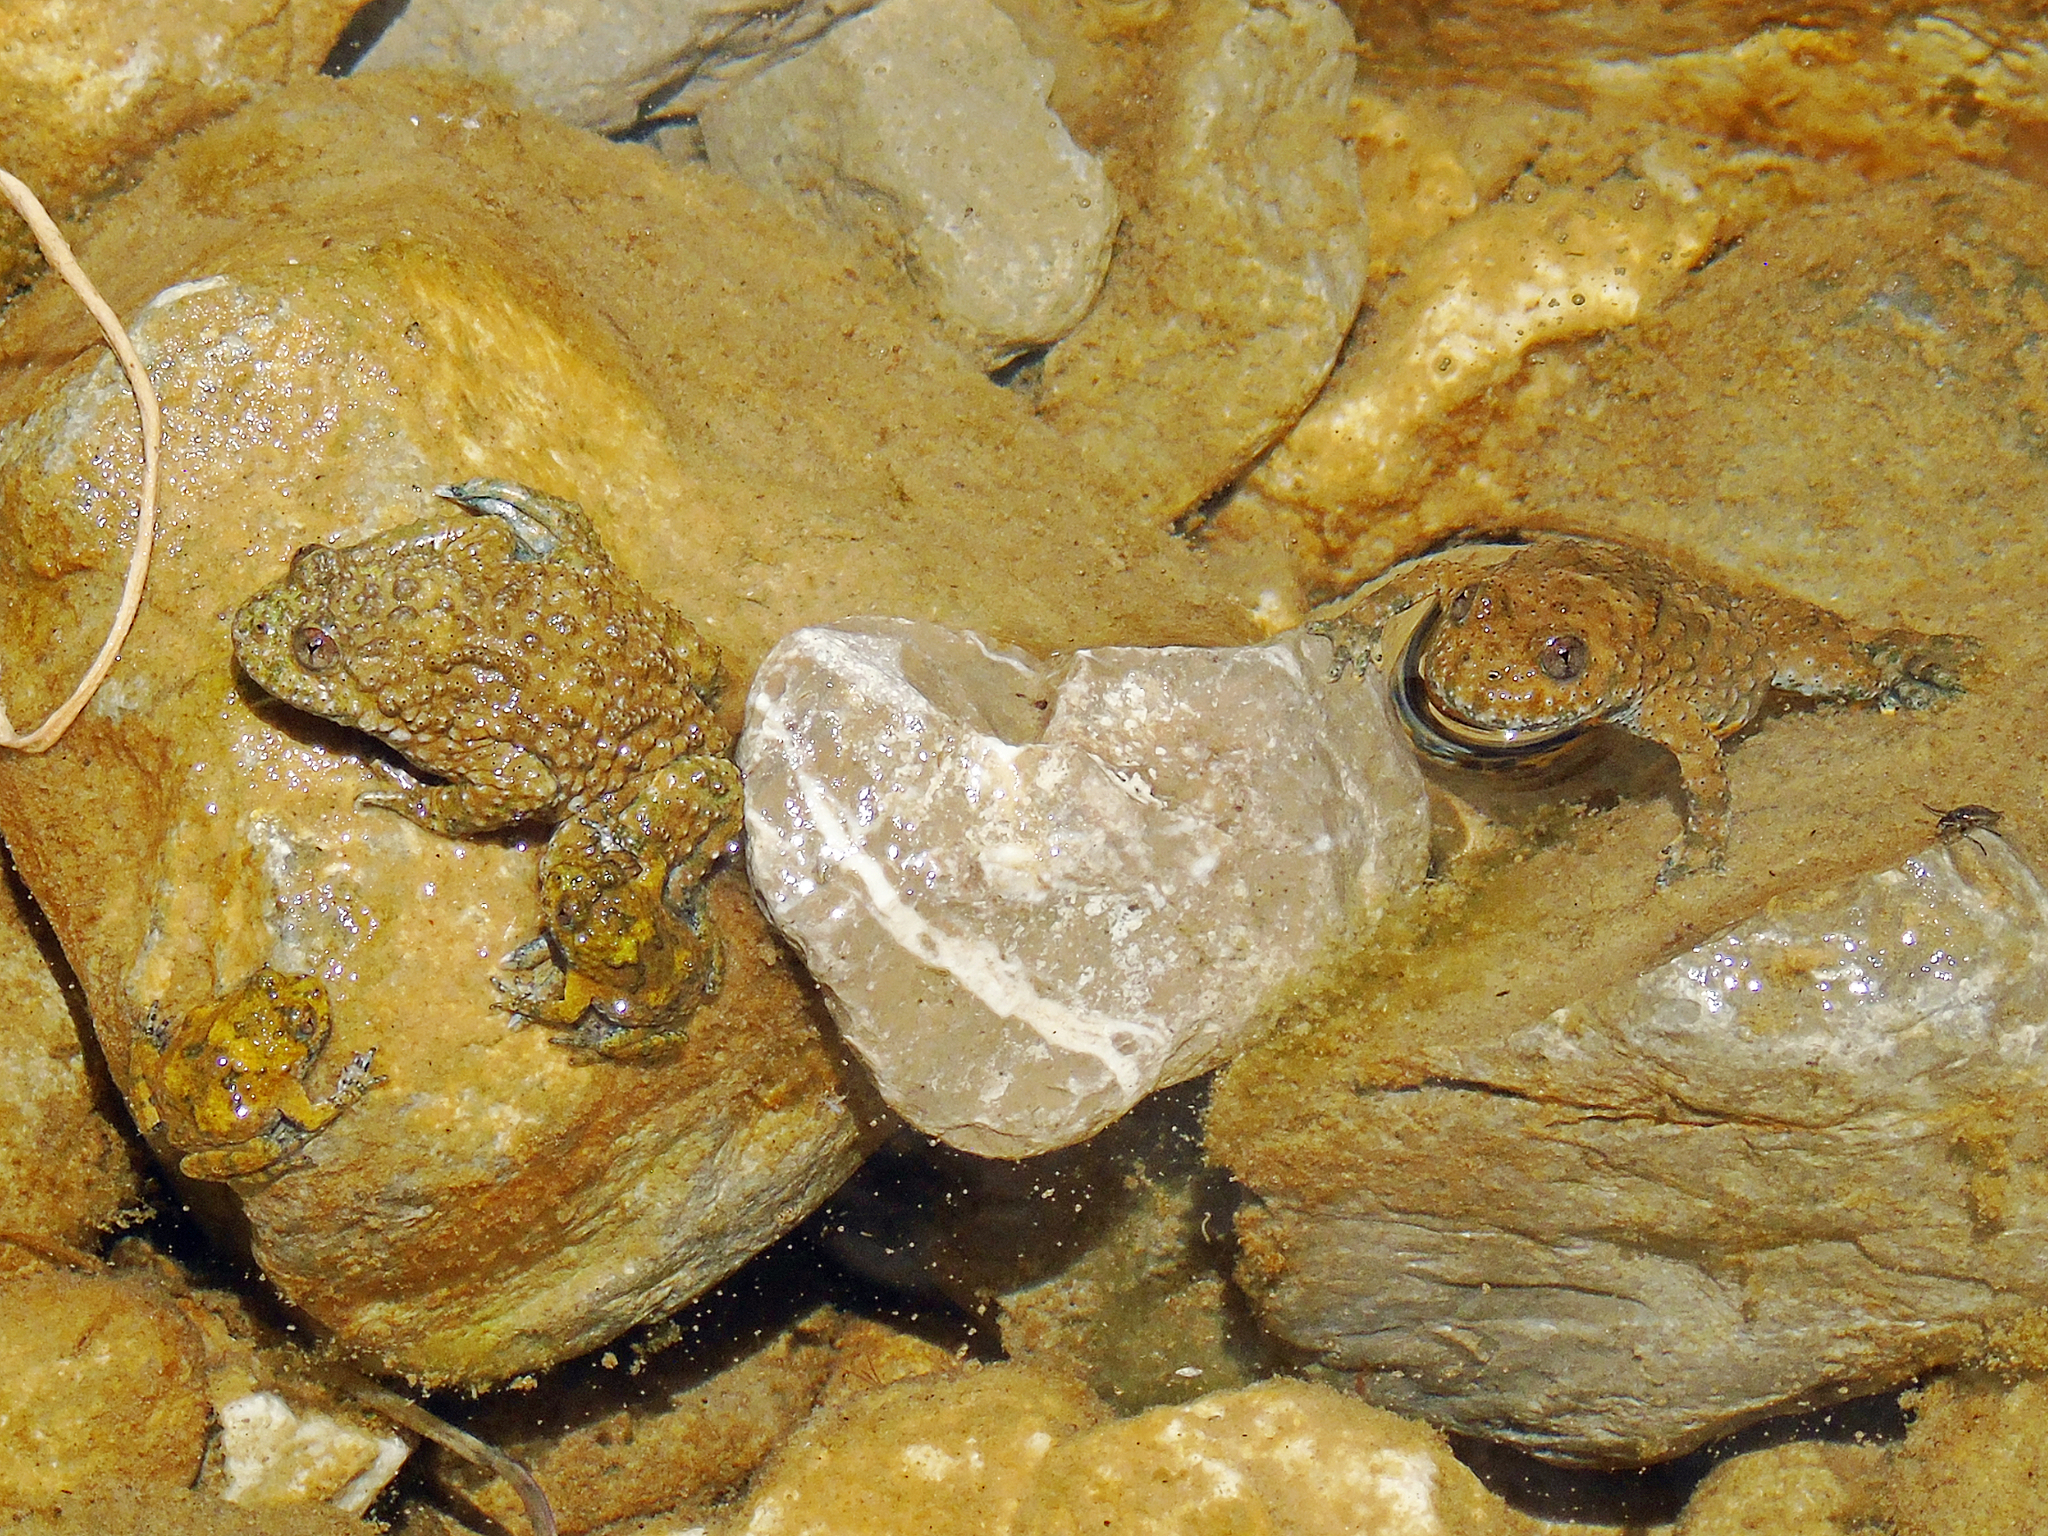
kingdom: Animalia
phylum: Chordata
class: Amphibia
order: Anura
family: Bombinatoridae
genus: Bombina
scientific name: Bombina variegata
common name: Yellow-bellied toad
